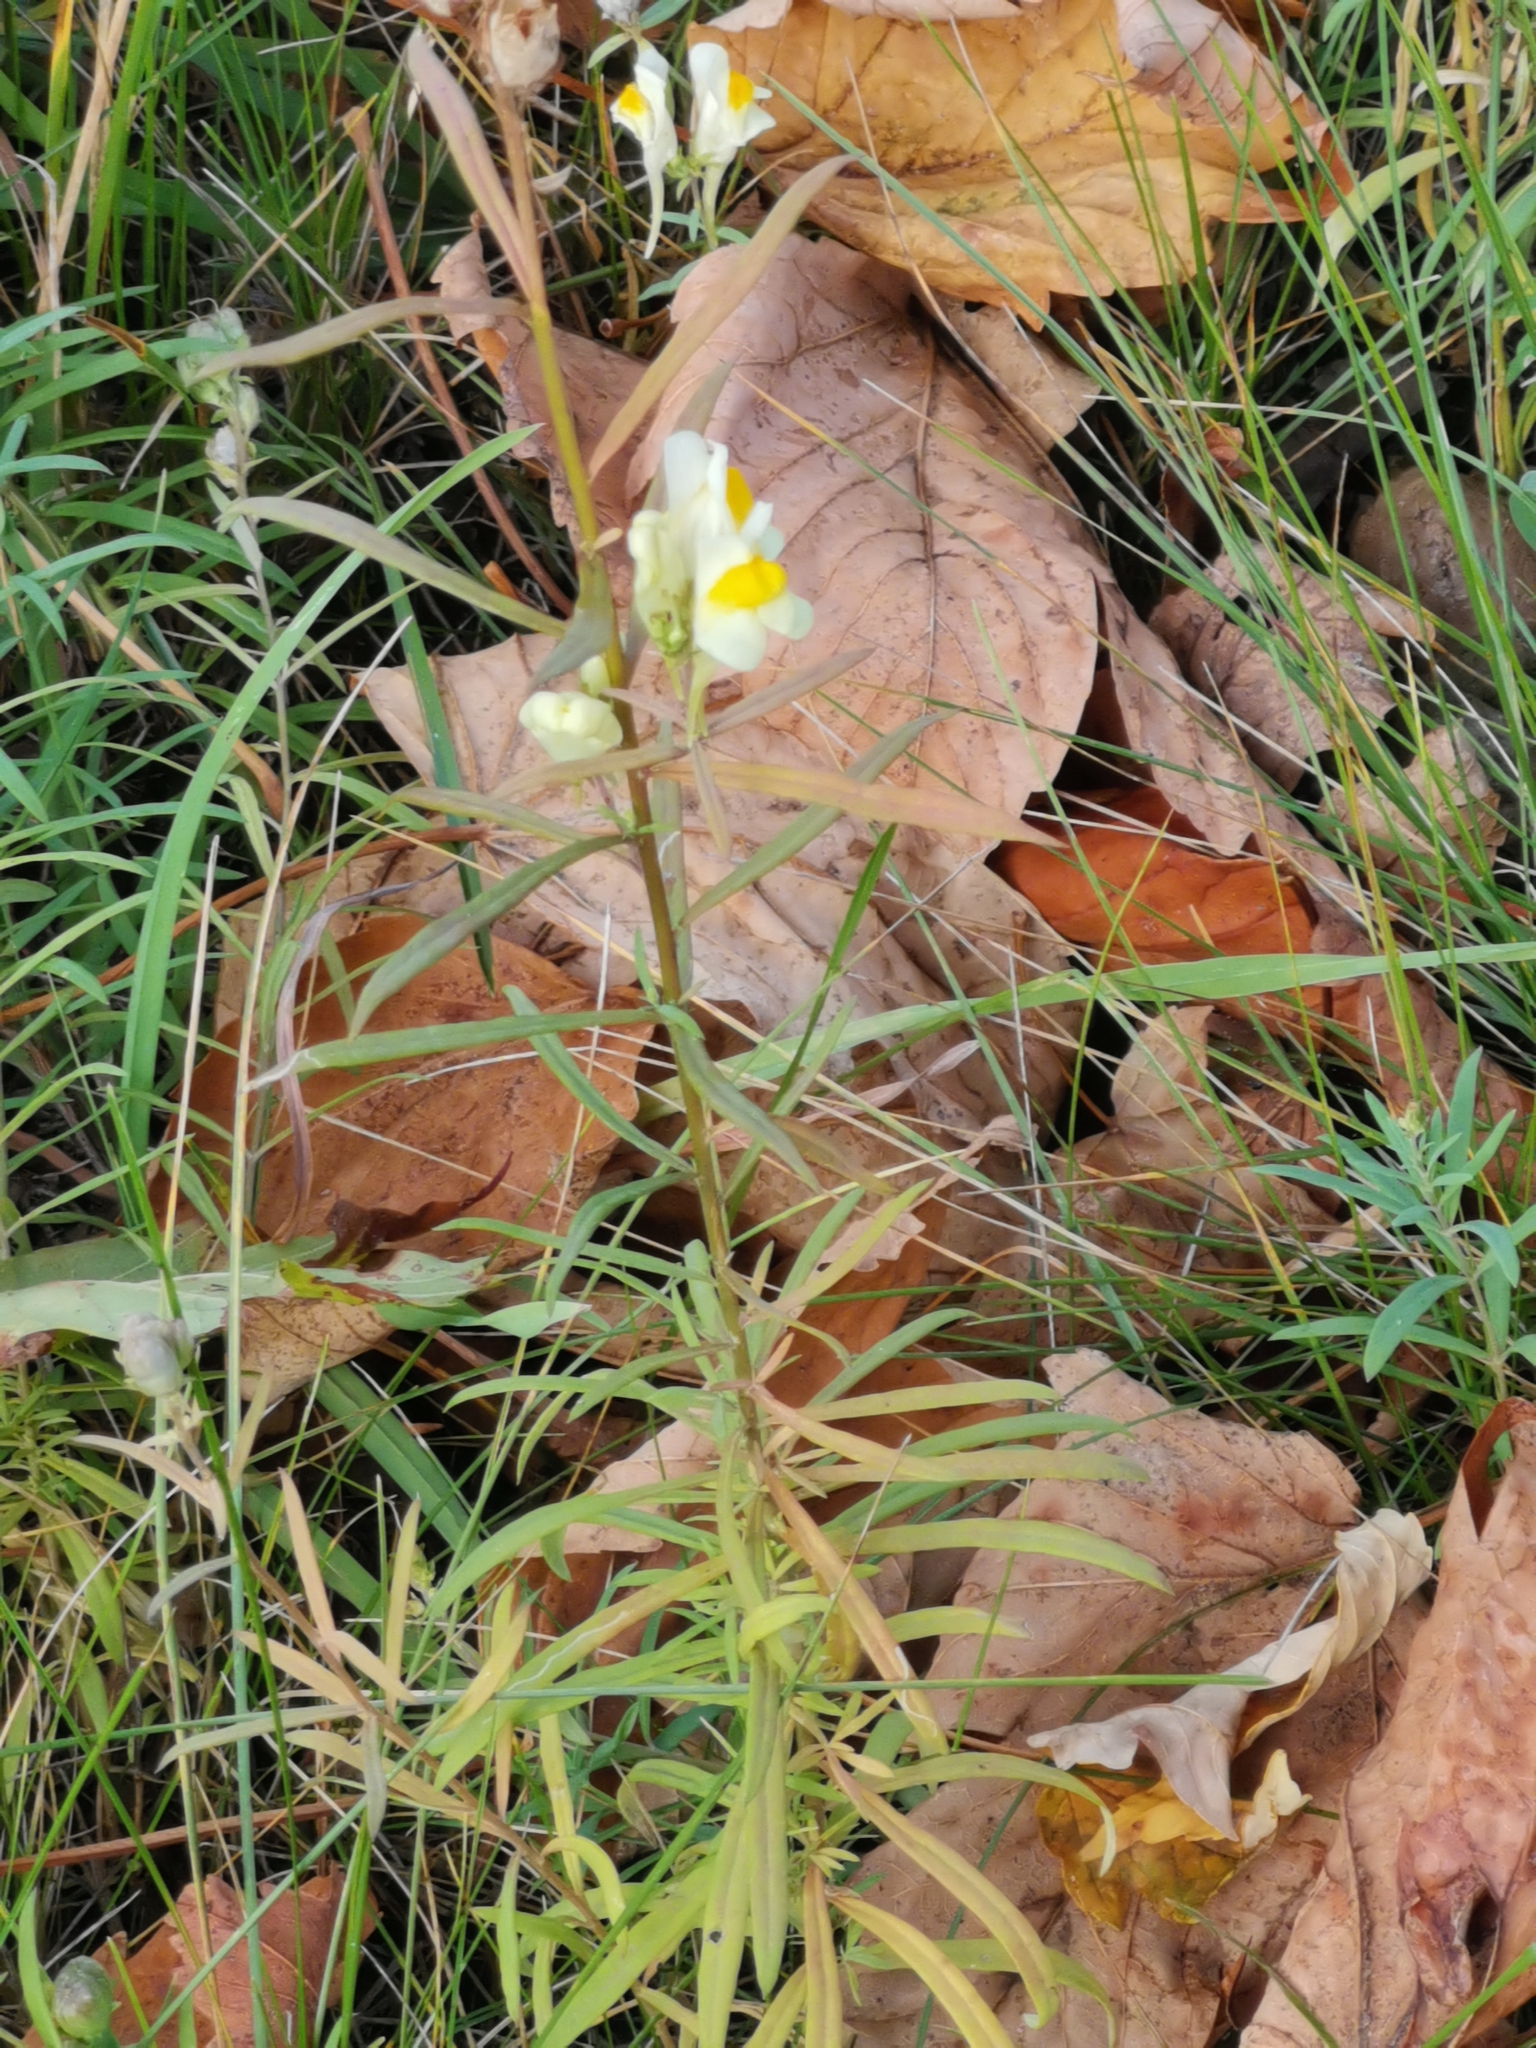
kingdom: Plantae
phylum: Tracheophyta
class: Magnoliopsida
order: Lamiales
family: Plantaginaceae
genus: Linaria
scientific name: Linaria vulgaris
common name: Butter and eggs
